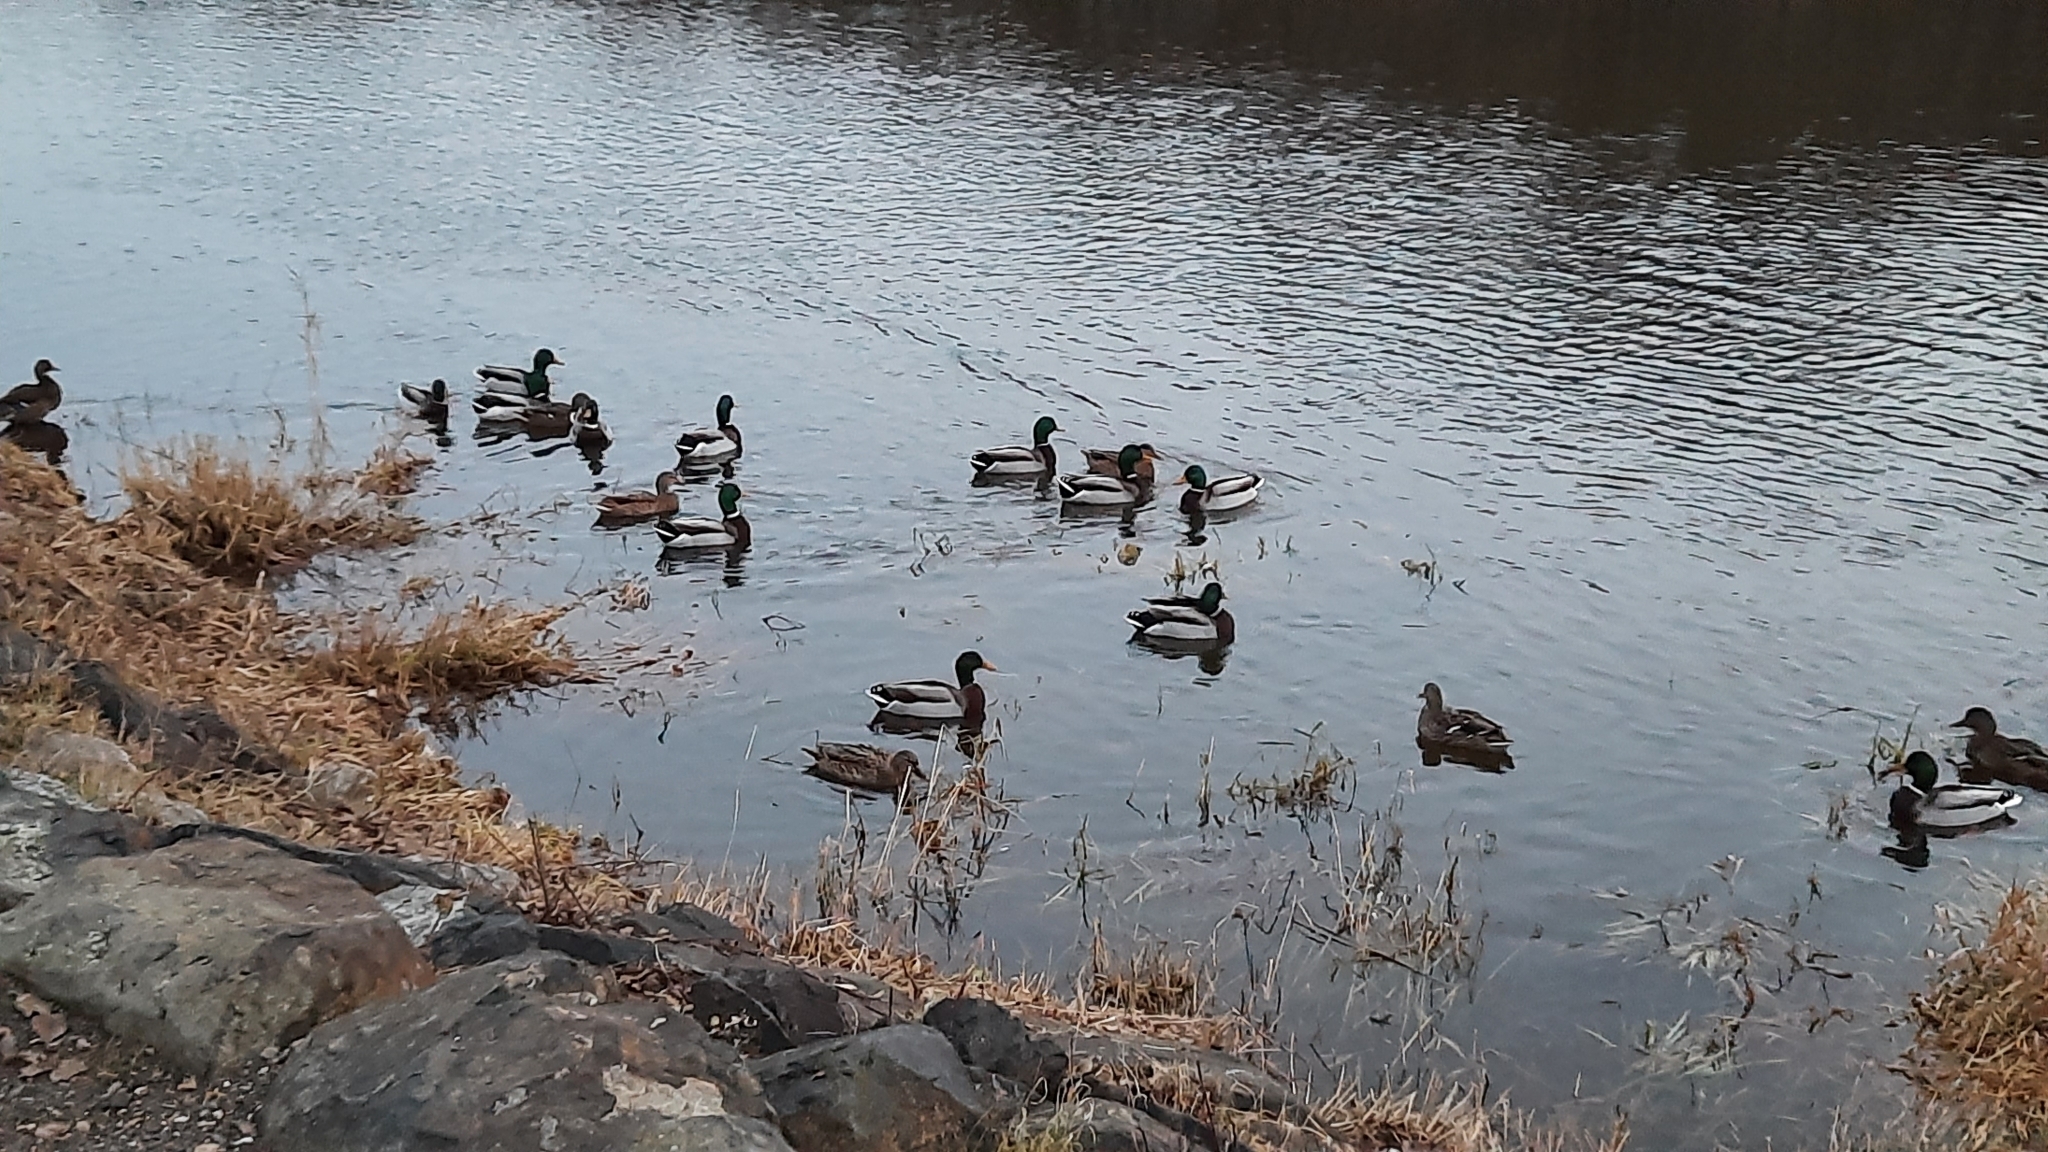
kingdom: Animalia
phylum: Chordata
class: Aves
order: Anseriformes
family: Anatidae
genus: Anas
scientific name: Anas platyrhynchos
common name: Mallard
